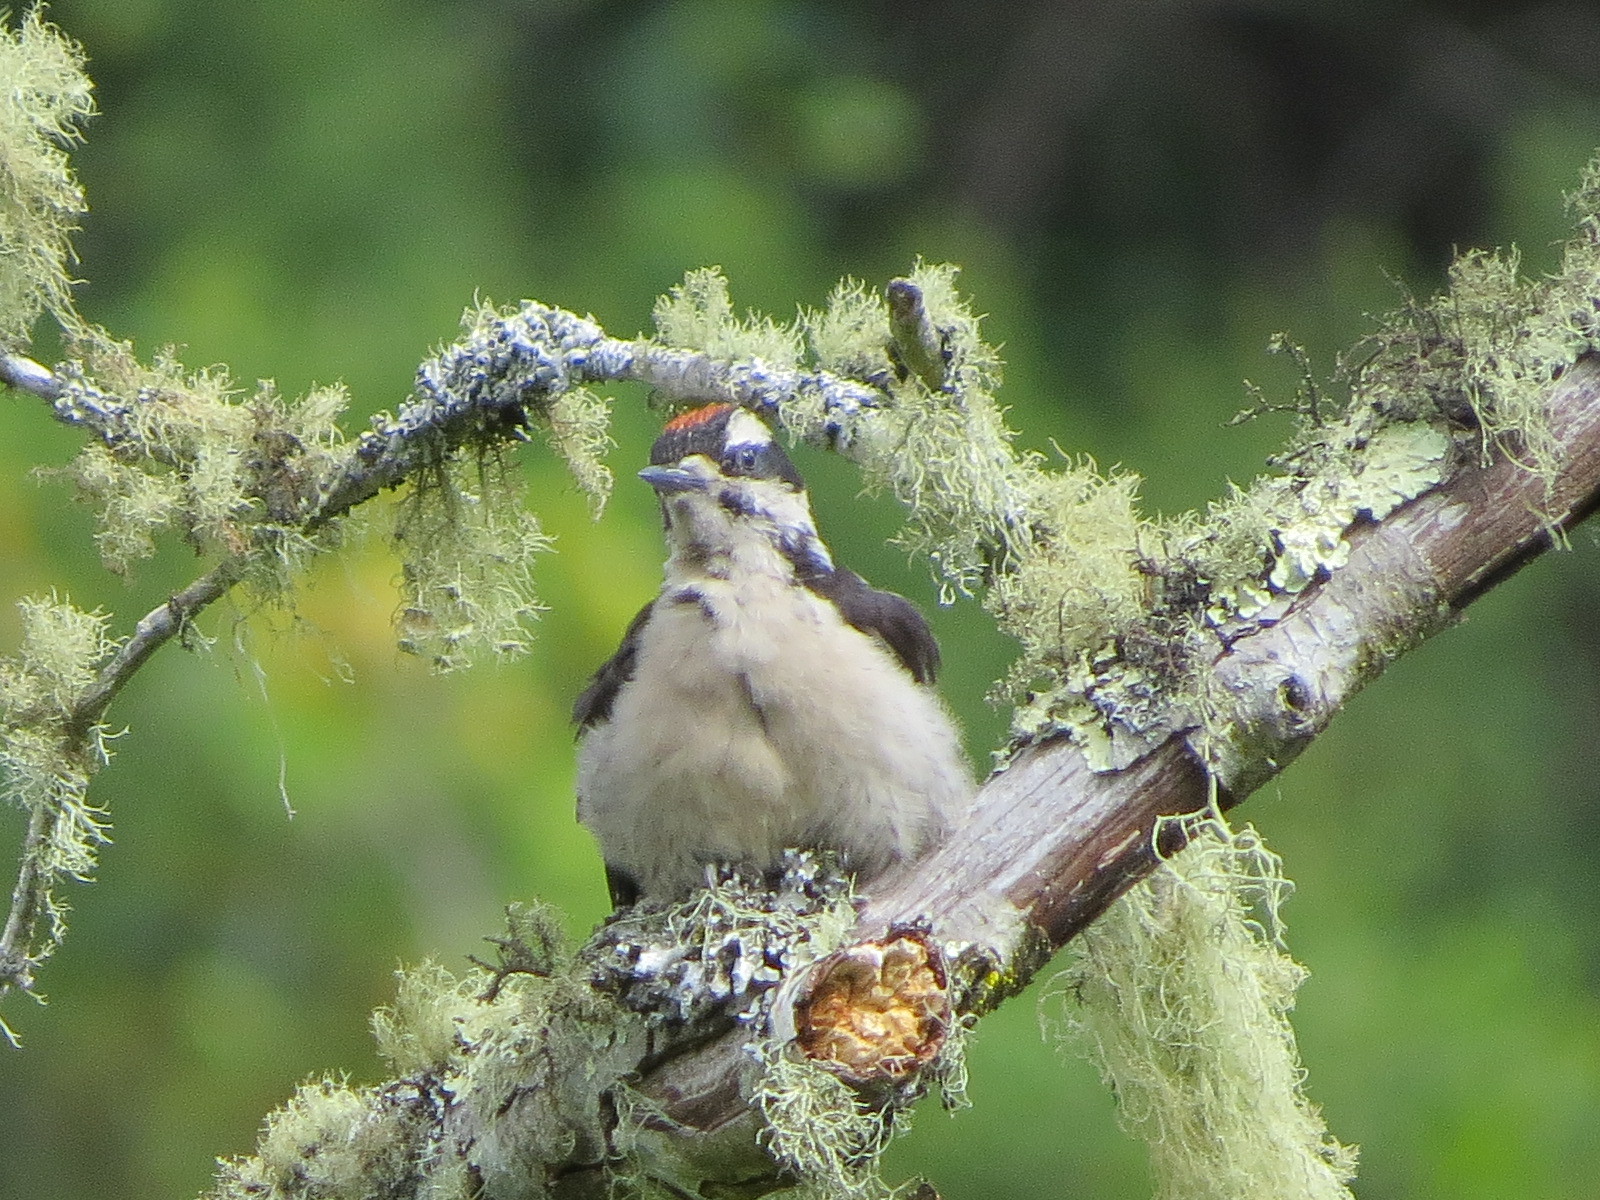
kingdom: Animalia
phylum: Chordata
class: Aves
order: Piciformes
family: Picidae
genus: Leuconotopicus
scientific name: Leuconotopicus villosus
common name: Hairy woodpecker
